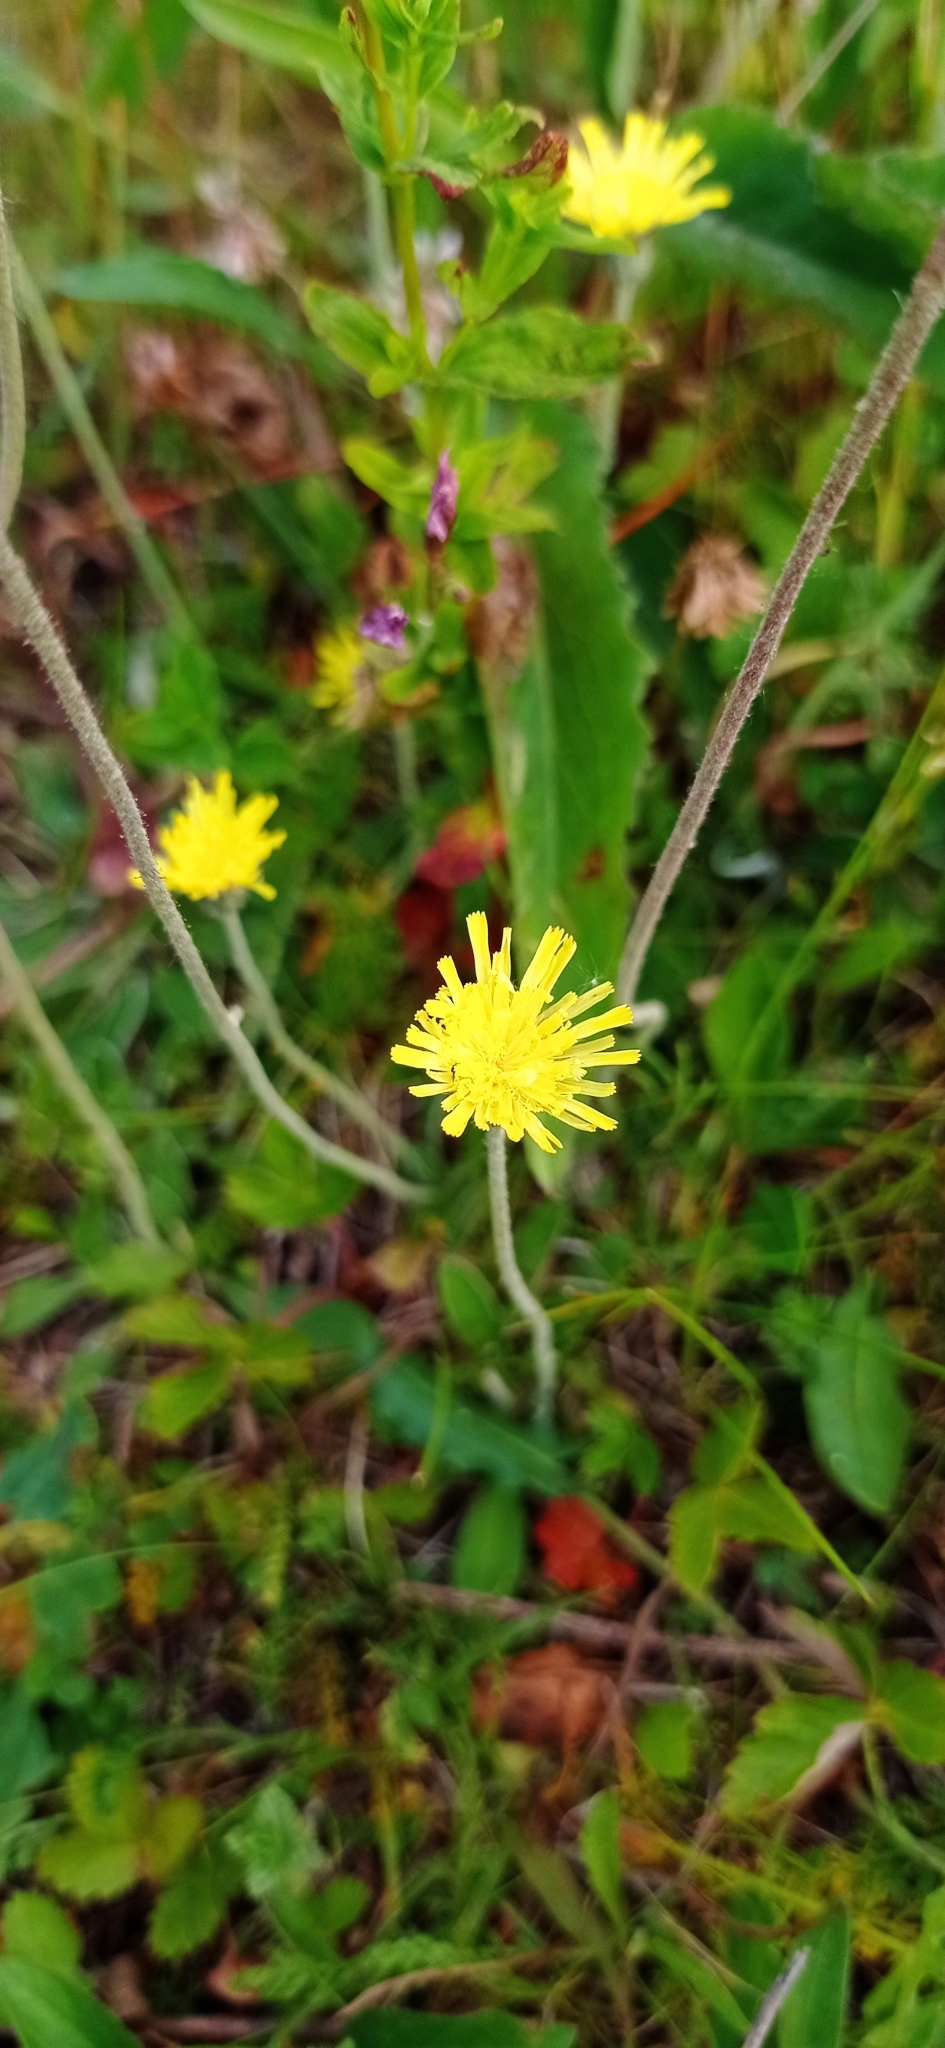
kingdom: Plantae
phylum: Tracheophyta
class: Magnoliopsida
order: Asterales
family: Asteraceae
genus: Pilosella
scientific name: Pilosella officinarum
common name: Mouse-ear hawkweed
